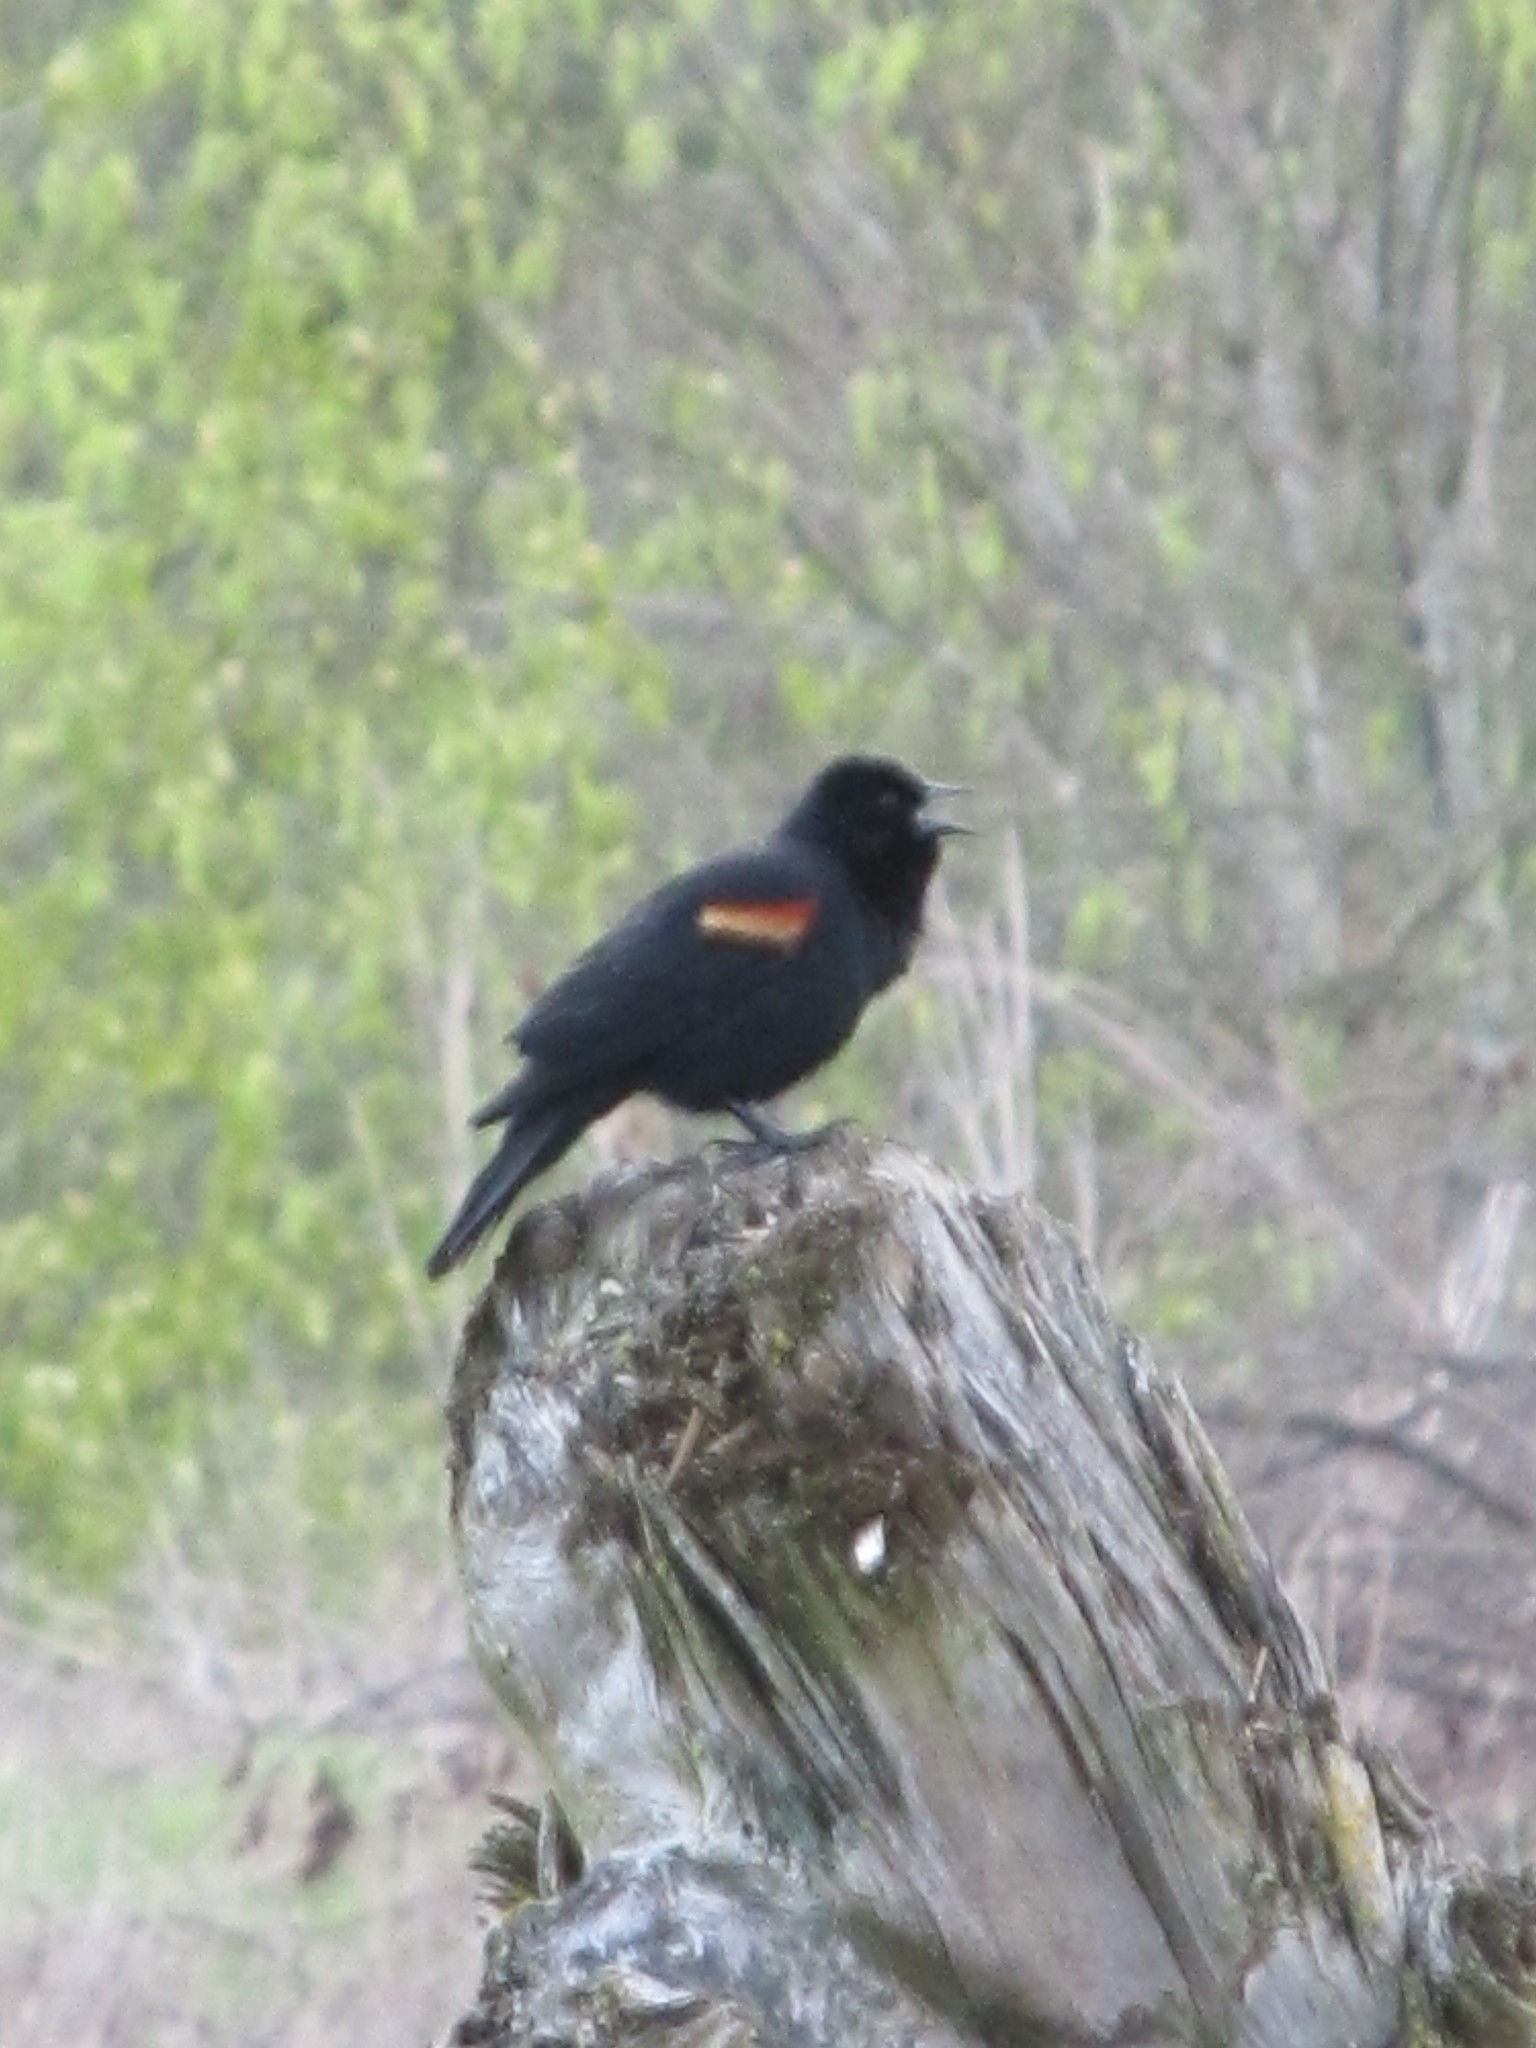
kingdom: Animalia
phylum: Chordata
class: Aves
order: Passeriformes
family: Icteridae
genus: Agelaius
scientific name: Agelaius phoeniceus
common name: Red-winged blackbird
